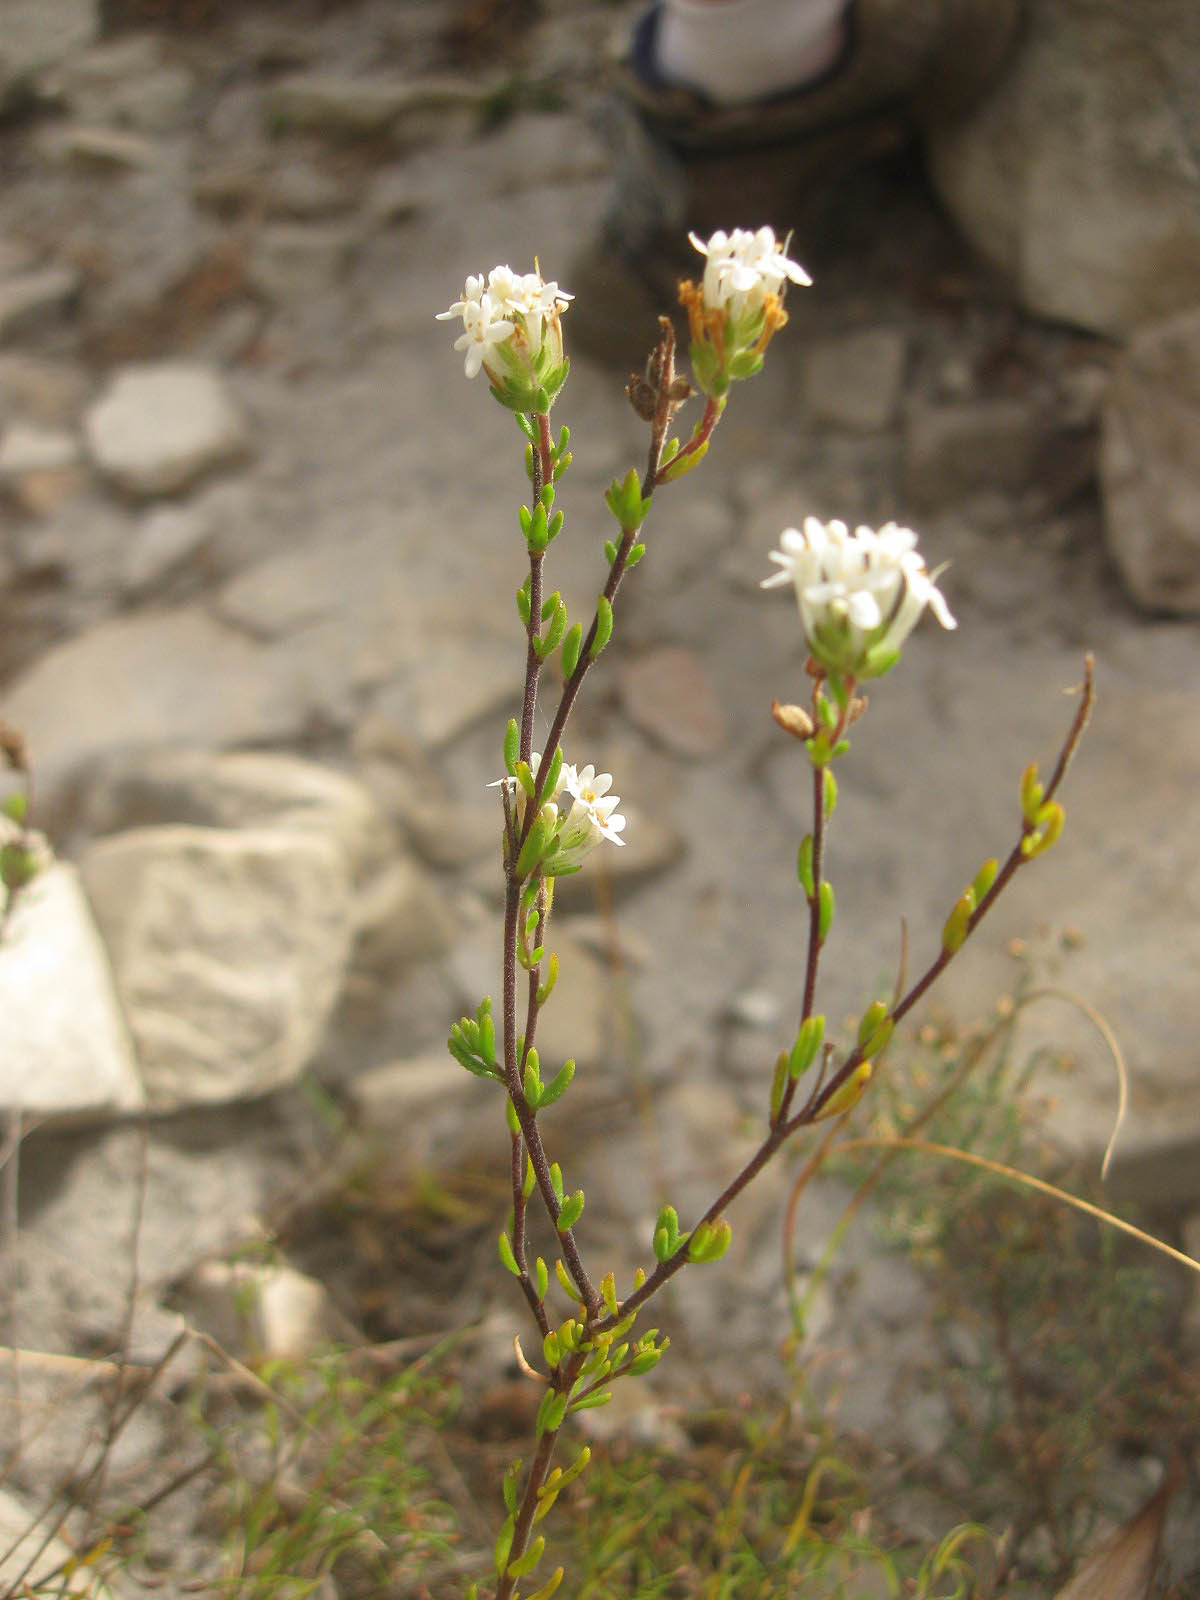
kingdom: Plantae
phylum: Tracheophyta
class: Magnoliopsida
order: Lamiales
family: Scrophulariaceae
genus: Selago
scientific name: Selago levynsiae
